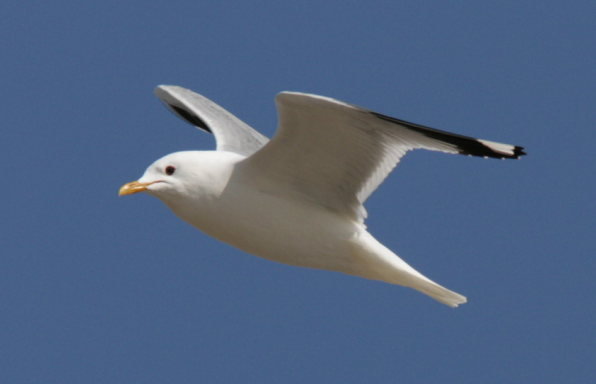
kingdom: Animalia
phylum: Chordata
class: Aves
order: Charadriiformes
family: Laridae
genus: Larus
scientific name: Larus canus
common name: Mew gull
